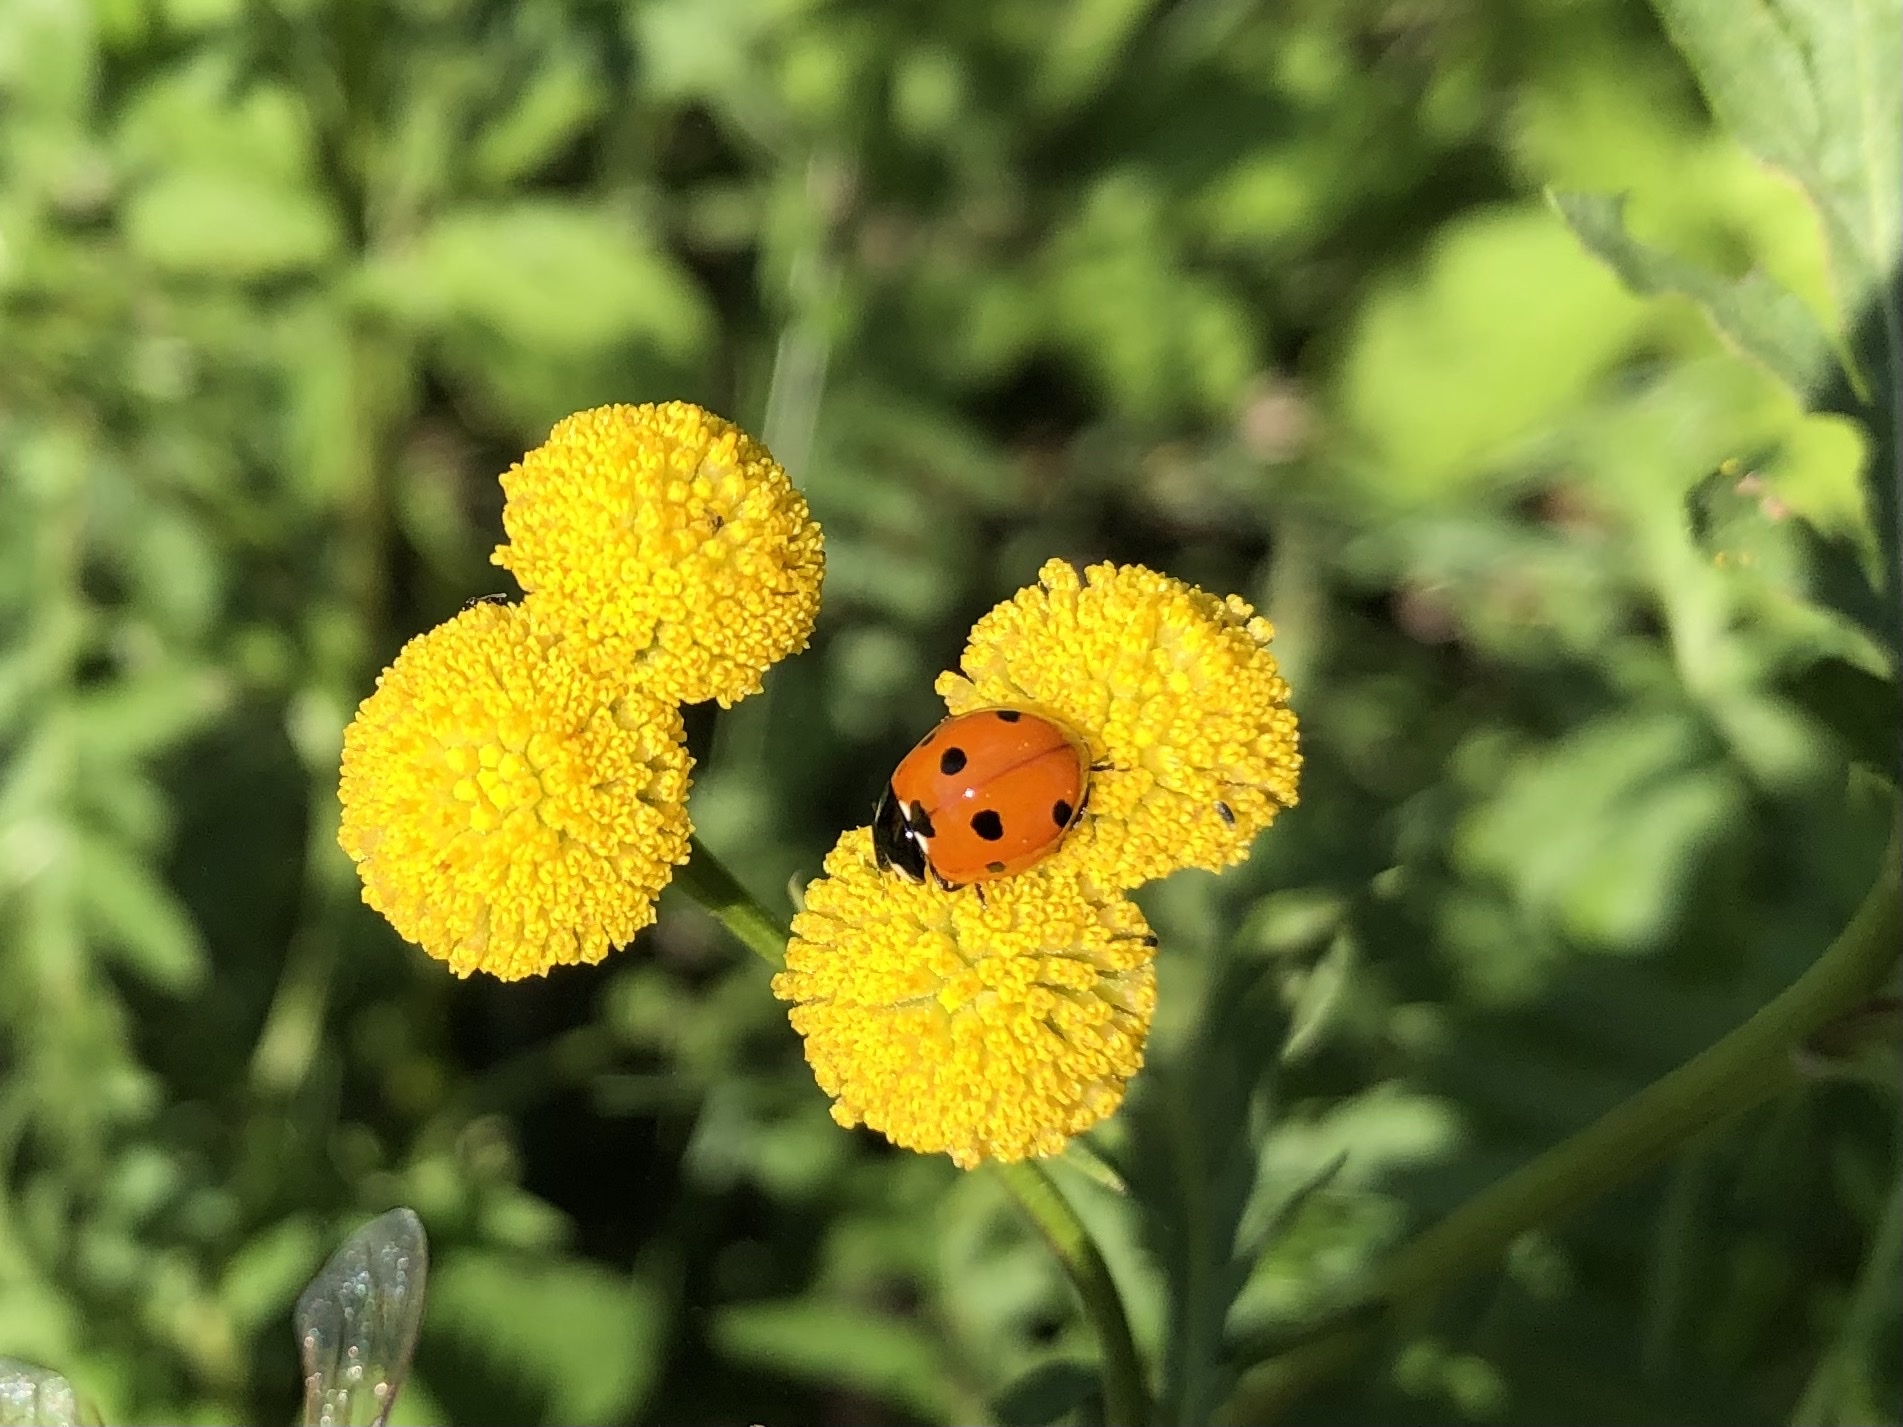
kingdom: Animalia
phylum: Arthropoda
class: Insecta
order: Coleoptera
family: Coccinellidae
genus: Coccinella
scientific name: Coccinella septempunctata
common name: Sevenspotted lady beetle
